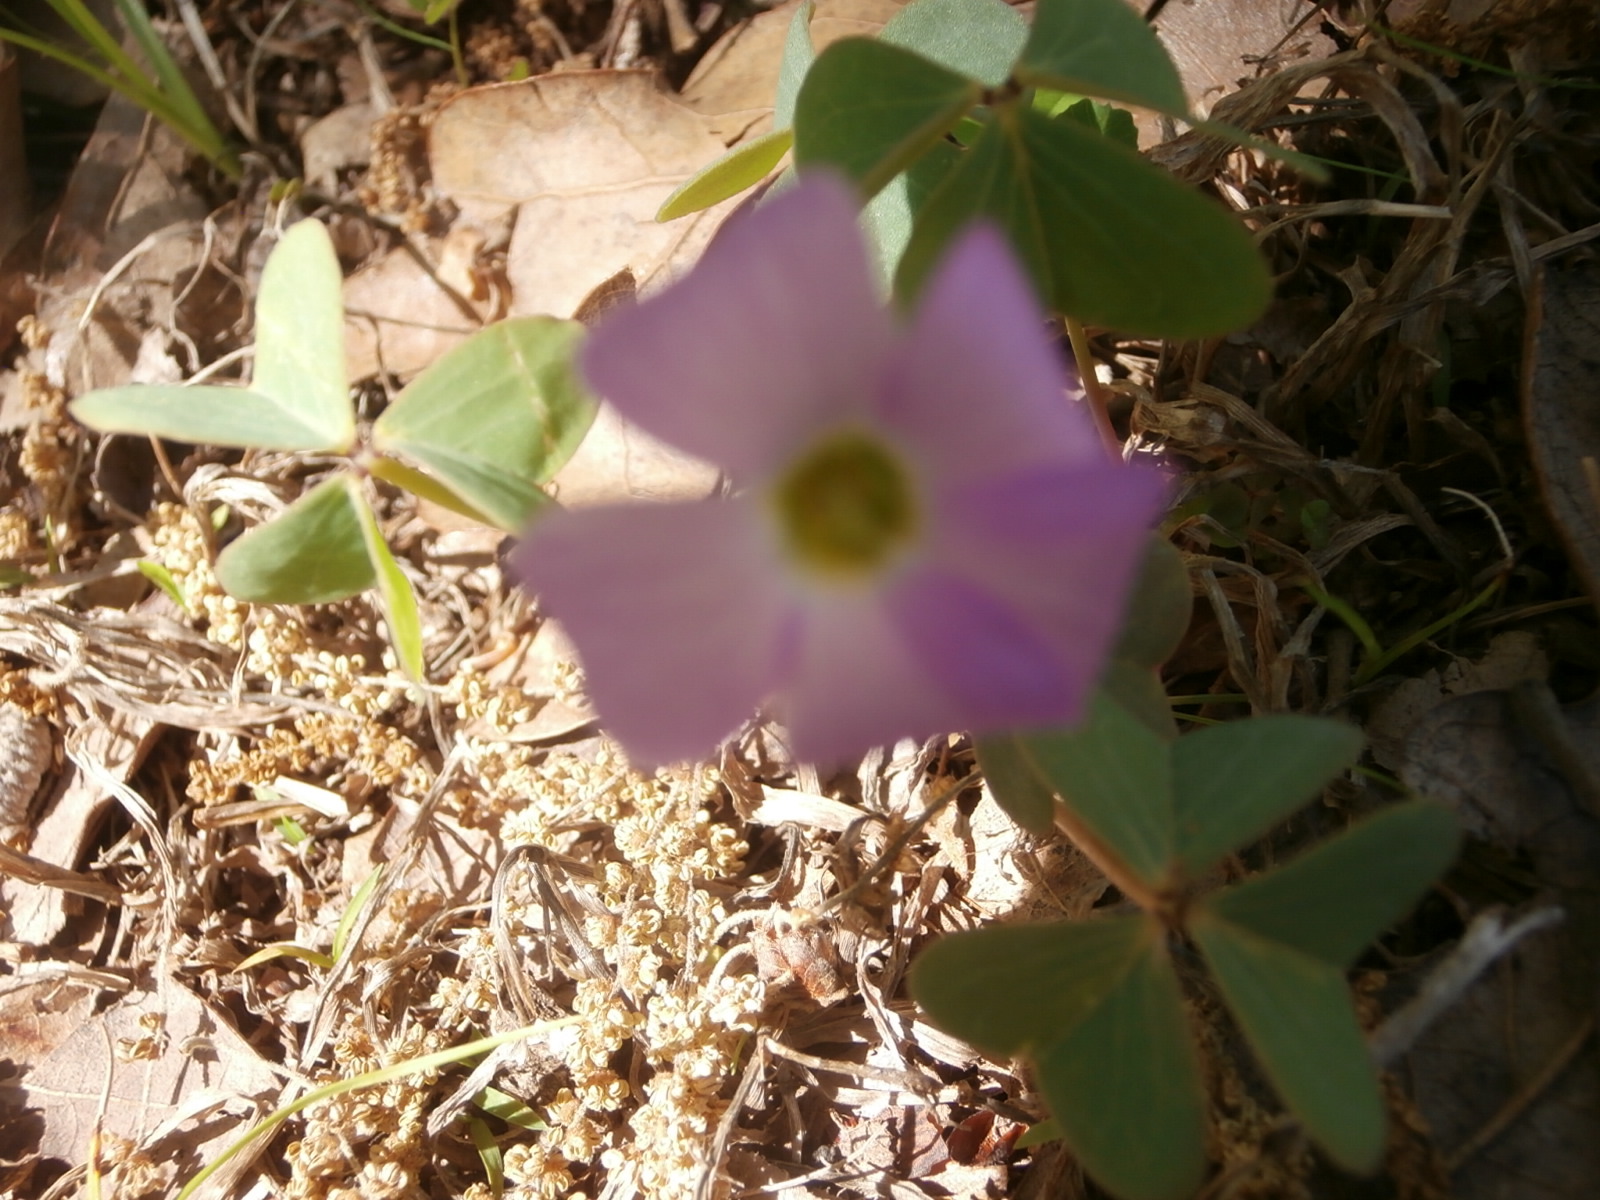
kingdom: Plantae
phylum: Tracheophyta
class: Magnoliopsida
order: Oxalidales
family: Oxalidaceae
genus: Oxalis
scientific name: Oxalis violacea
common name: Violet wood-sorrel
